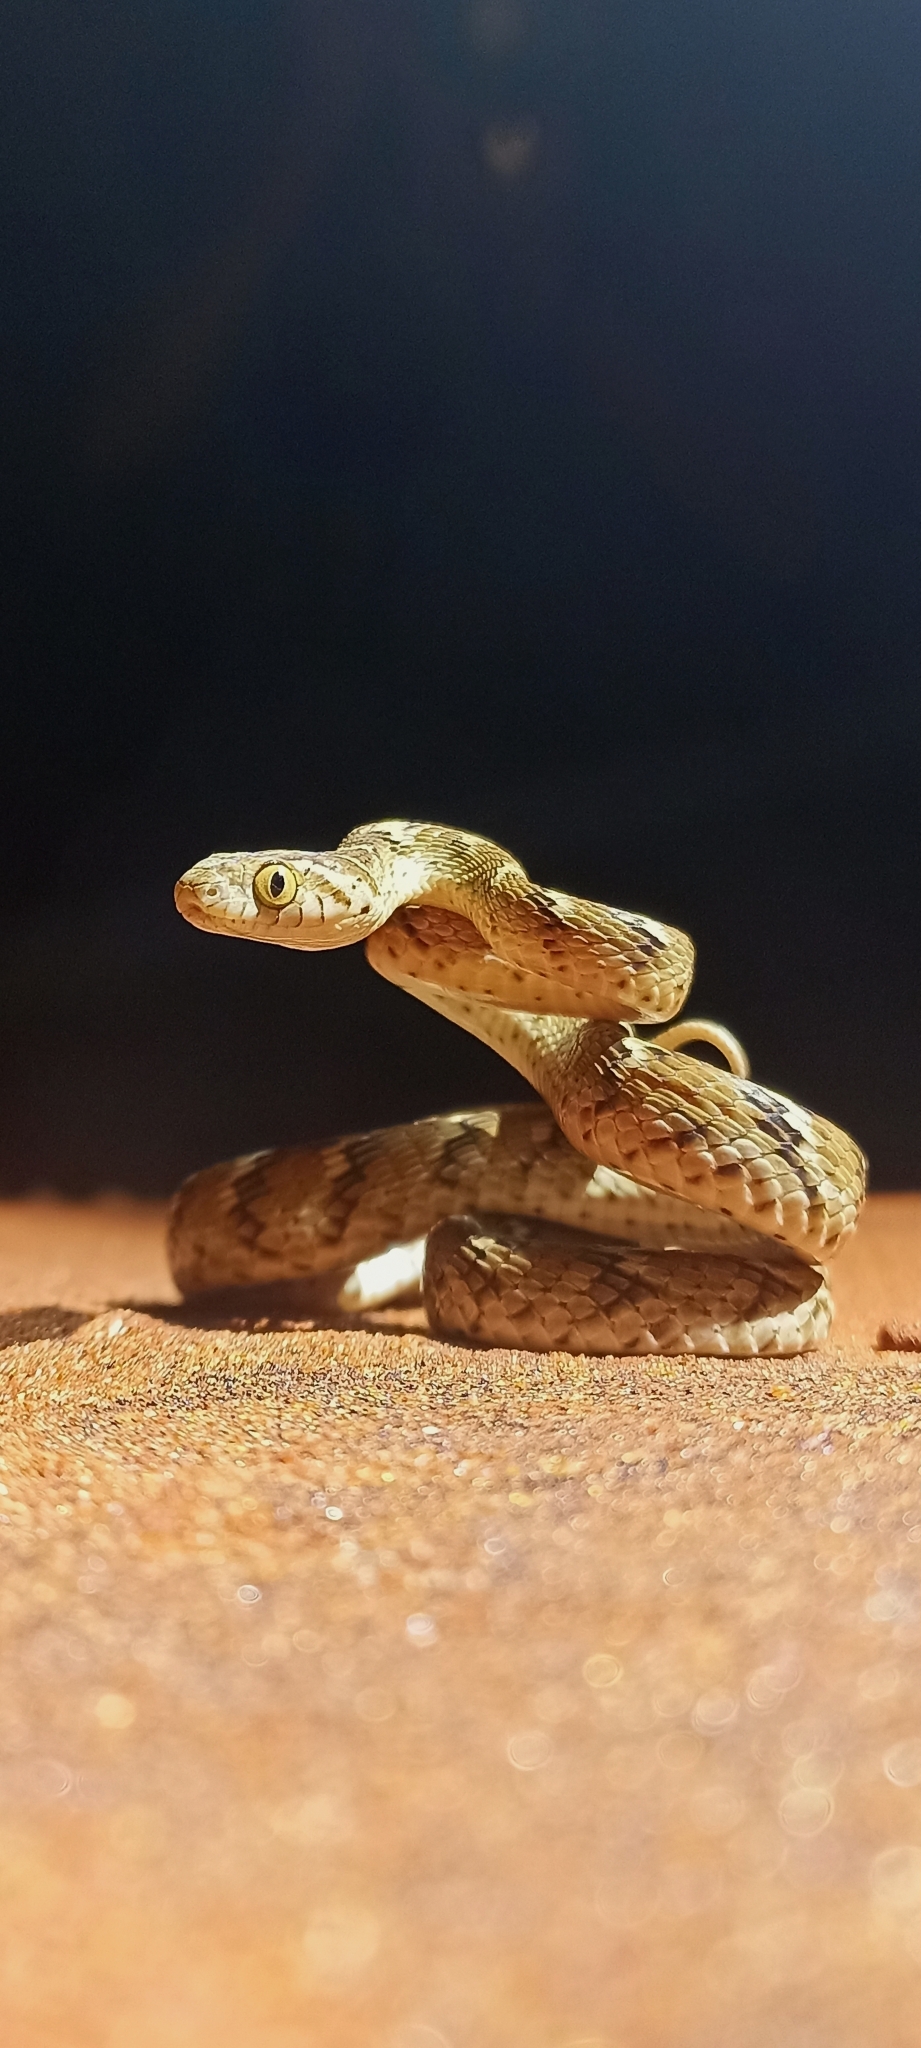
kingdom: Animalia
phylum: Chordata
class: Squamata
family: Colubridae
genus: Boiga
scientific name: Boiga trigonata
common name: Common cat snake
